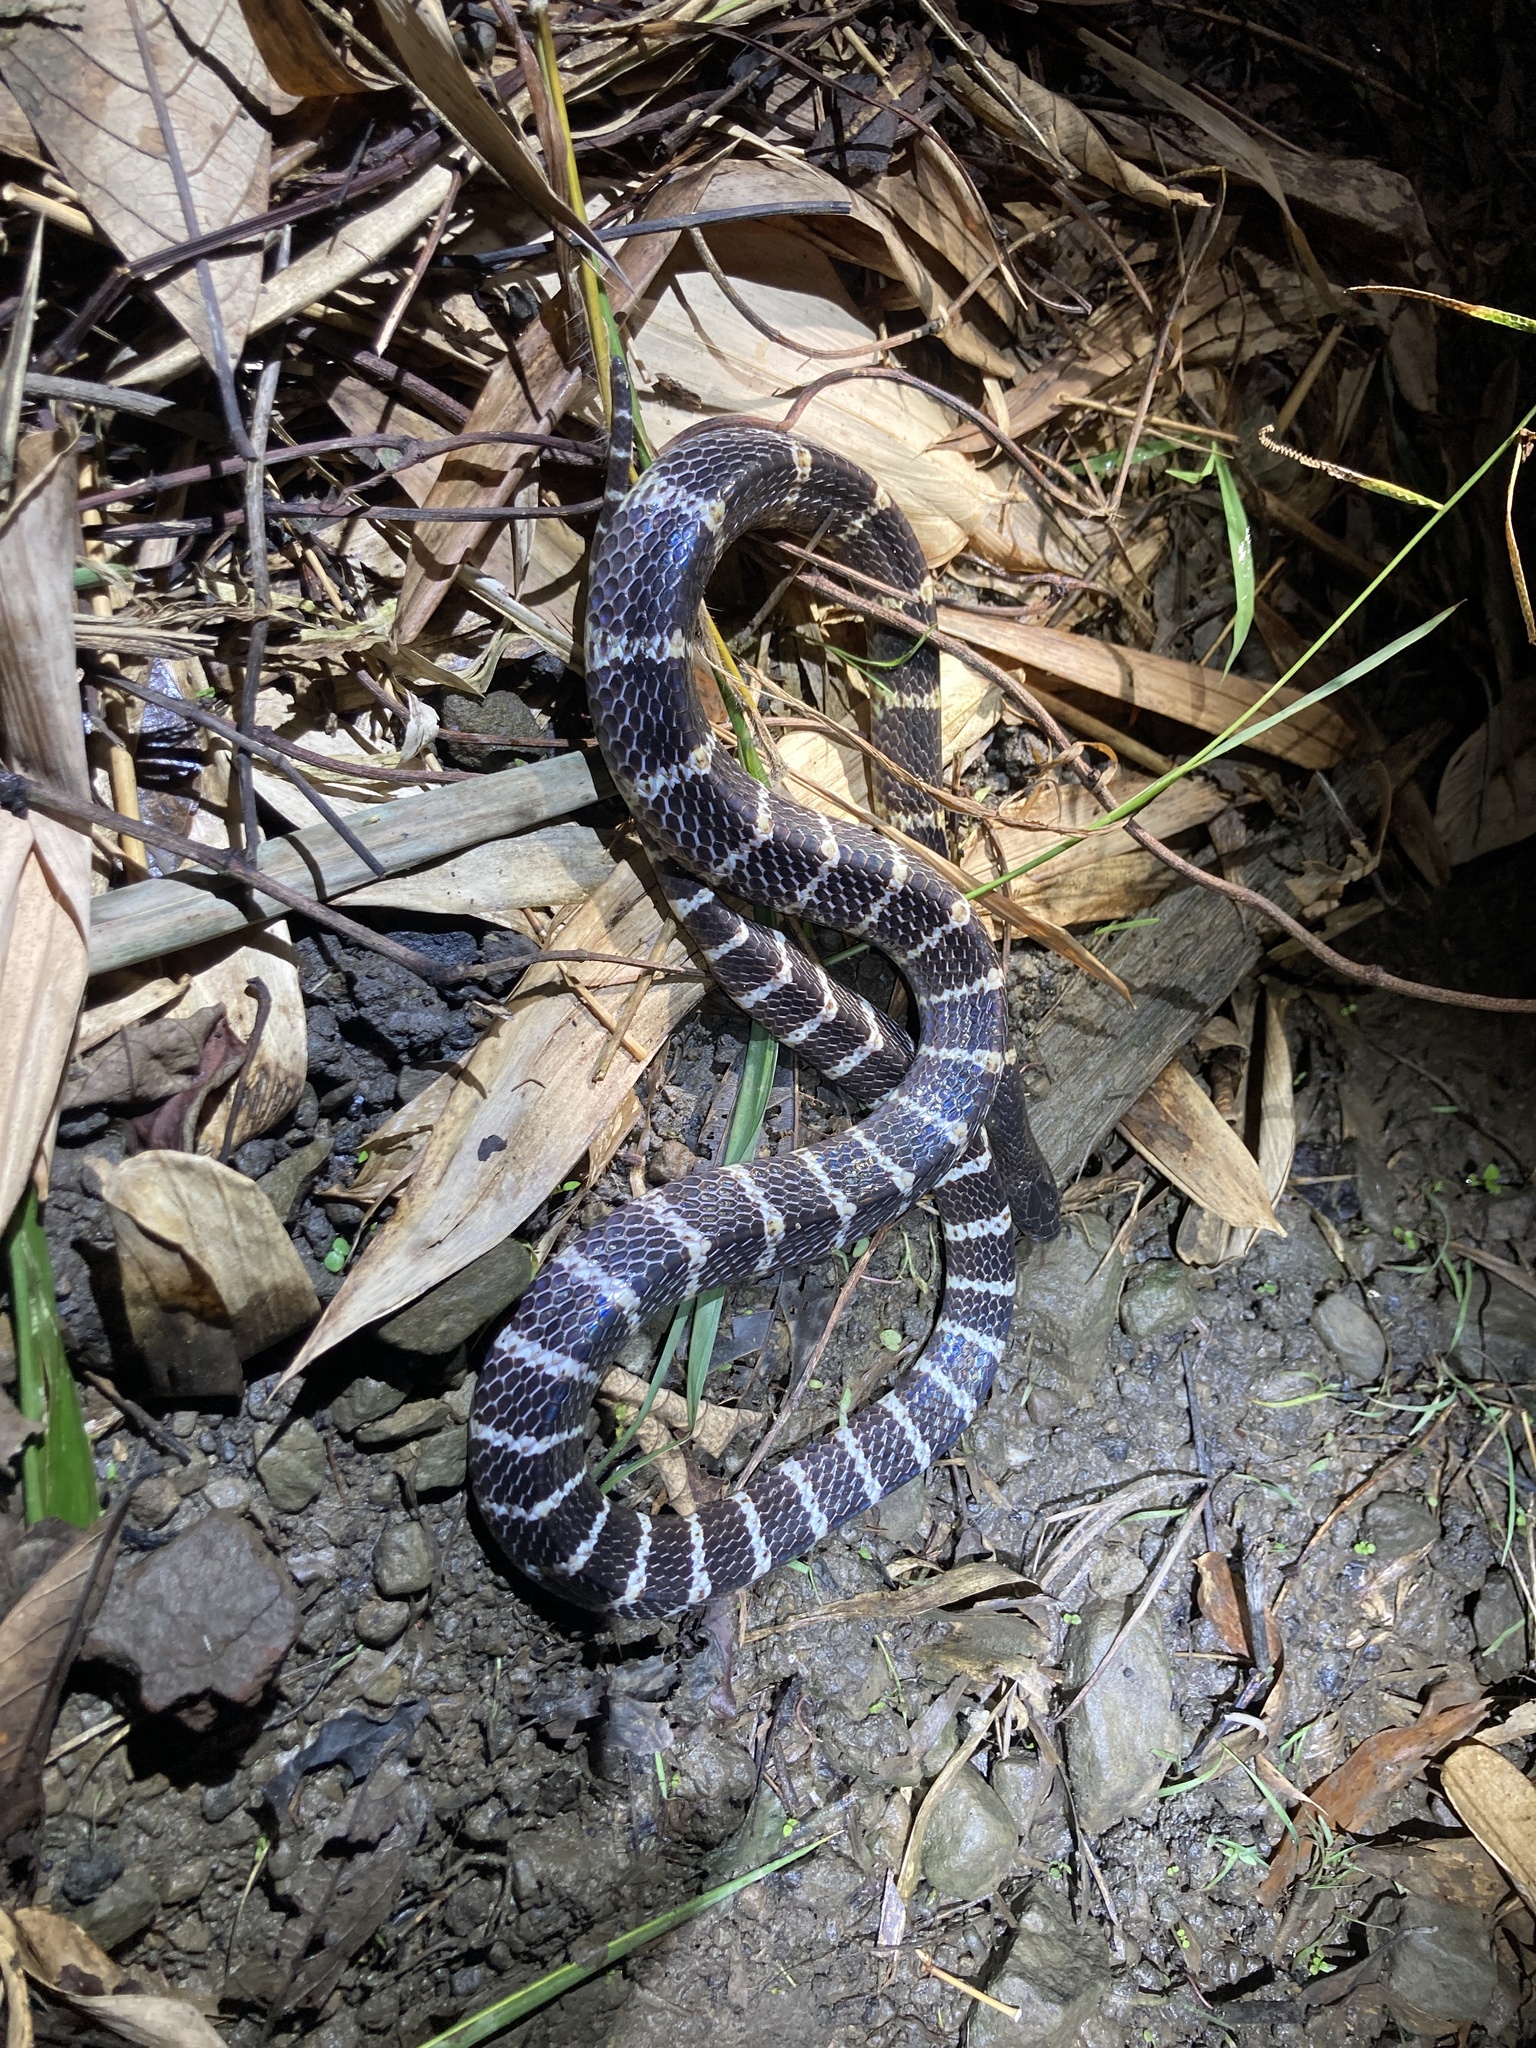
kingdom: Animalia
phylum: Chordata
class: Squamata
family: Elapidae
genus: Bungarus
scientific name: Bungarus multicinctus
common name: Many-banded krait
